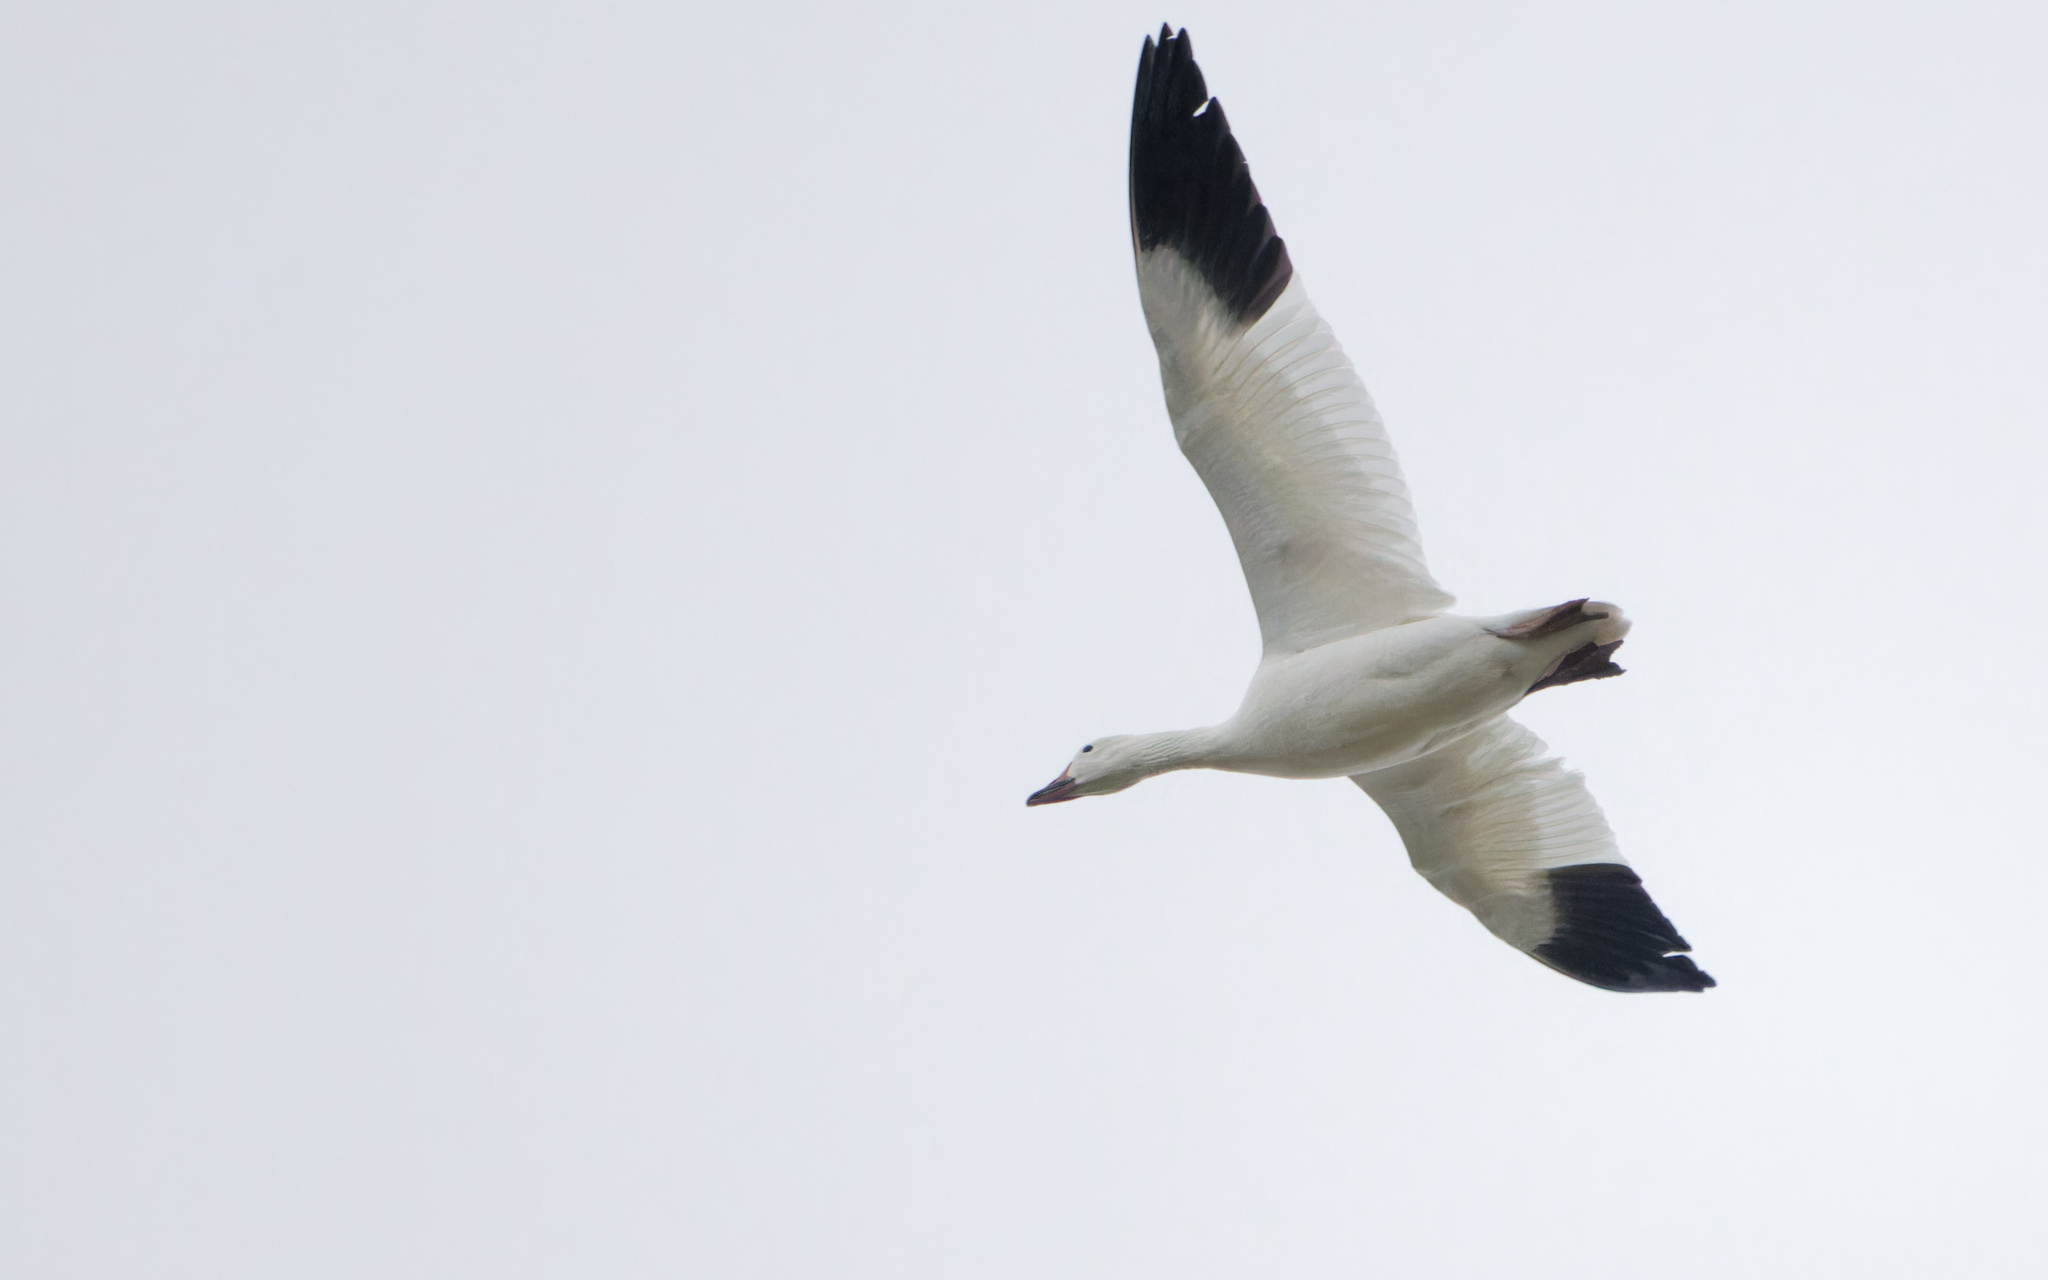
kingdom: Animalia
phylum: Chordata
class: Aves
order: Anseriformes
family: Anatidae
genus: Anser
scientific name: Anser caerulescens
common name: Snow goose
